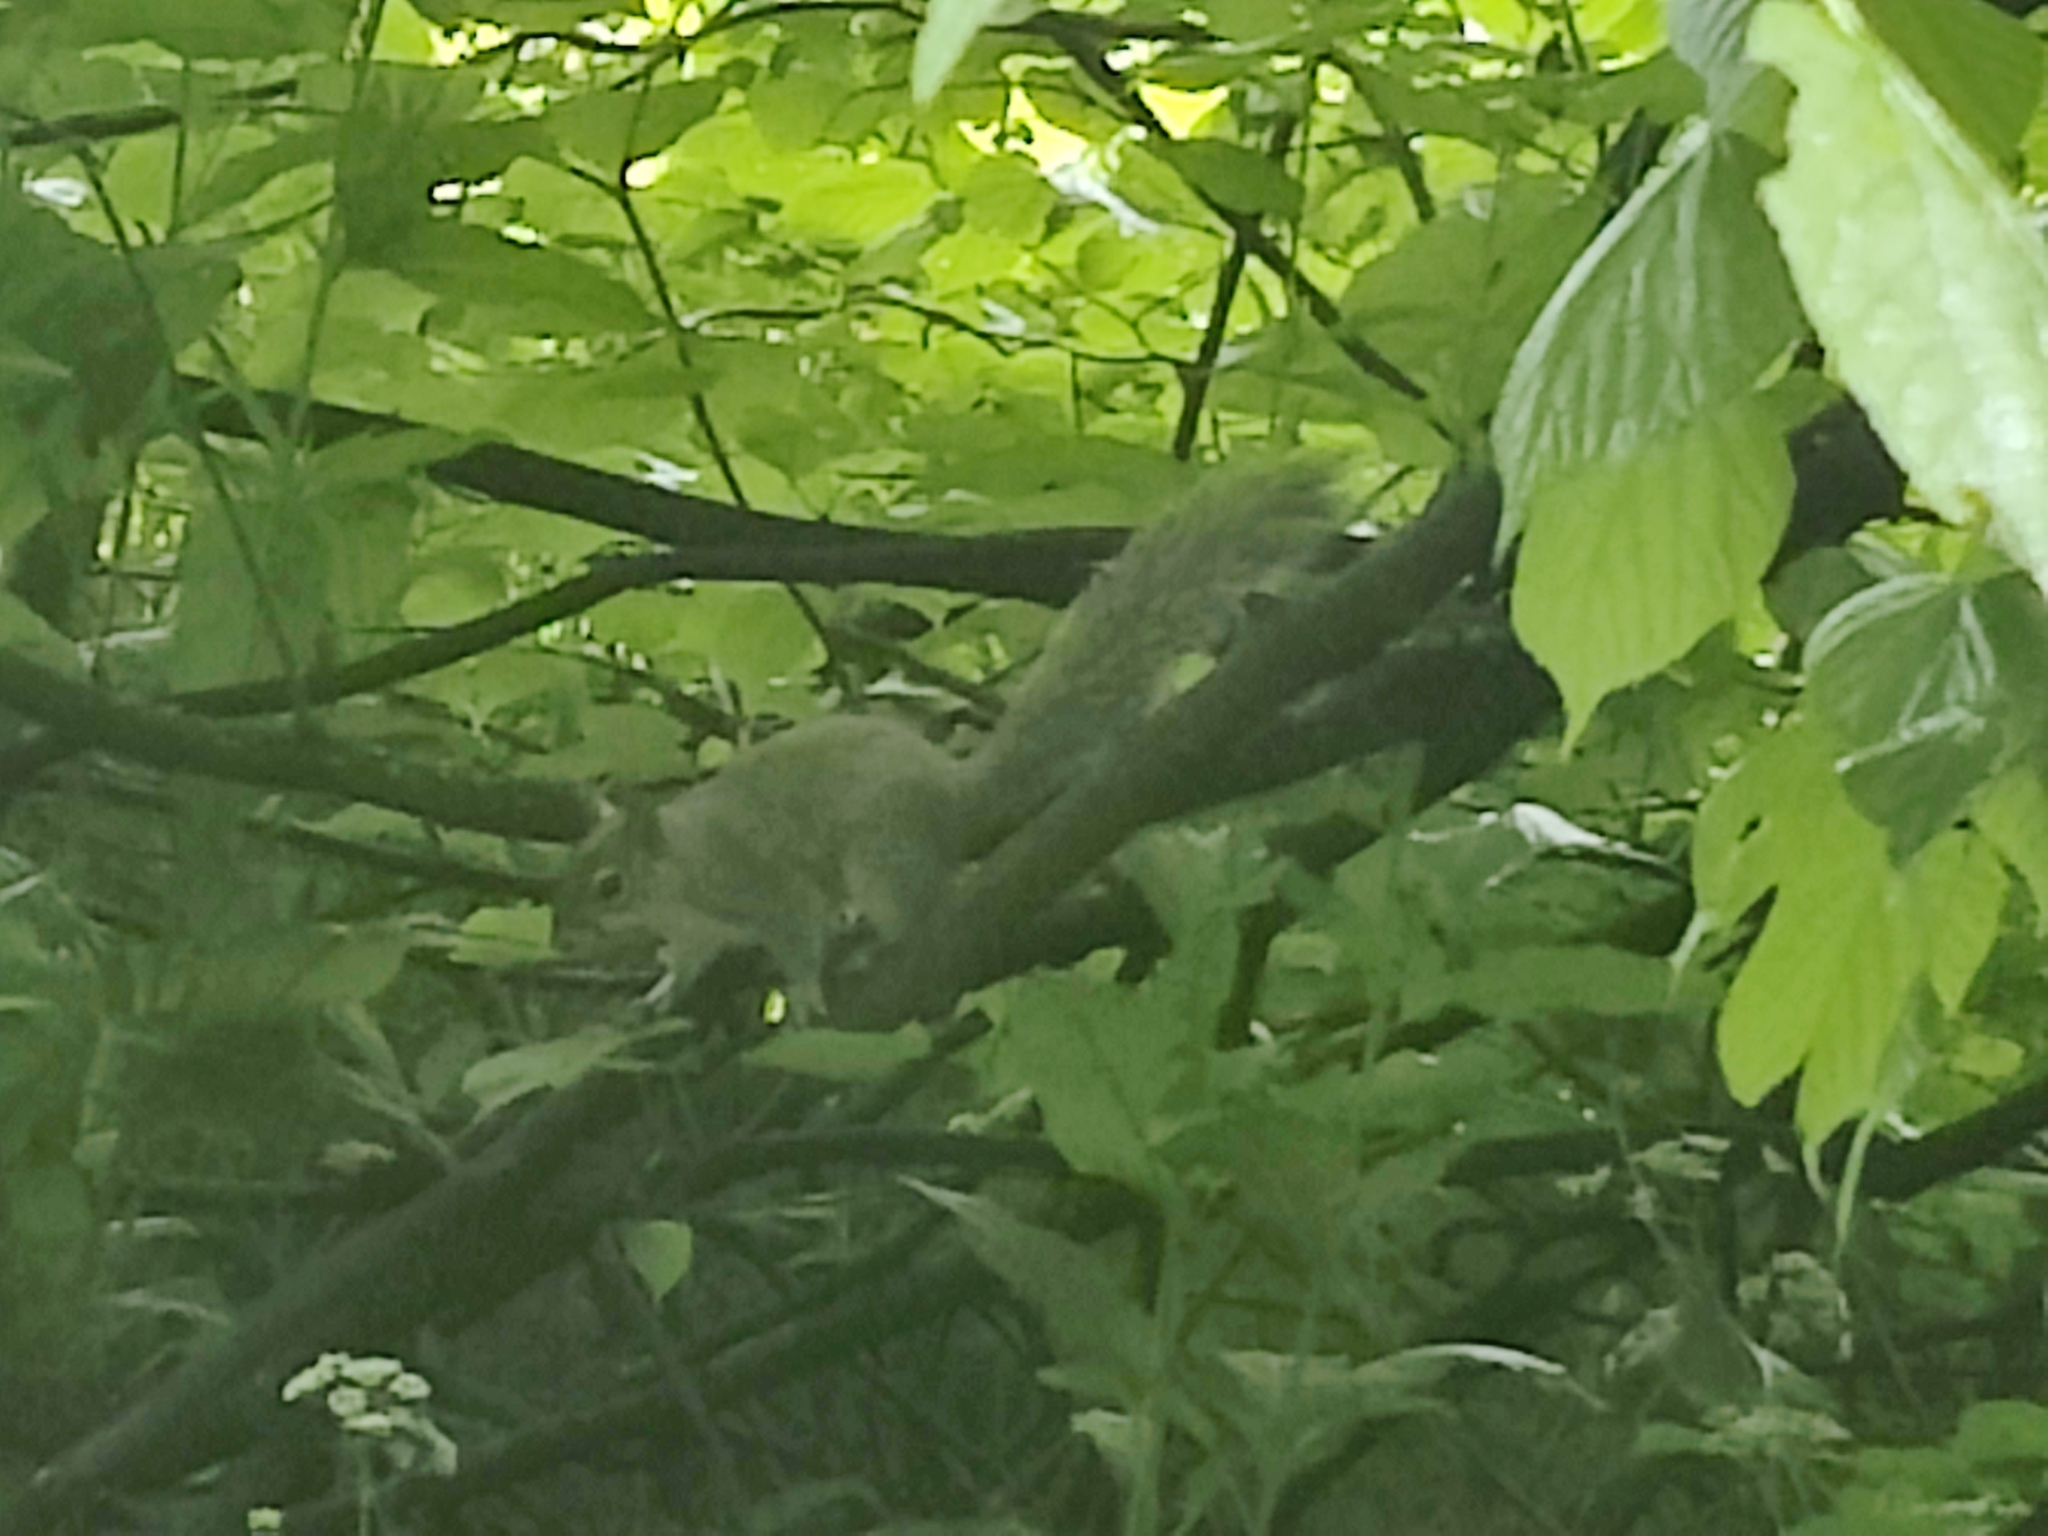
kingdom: Animalia
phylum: Chordata
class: Mammalia
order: Rodentia
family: Sciuridae
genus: Sciurus
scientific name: Sciurus carolinensis
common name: Eastern gray squirrel
